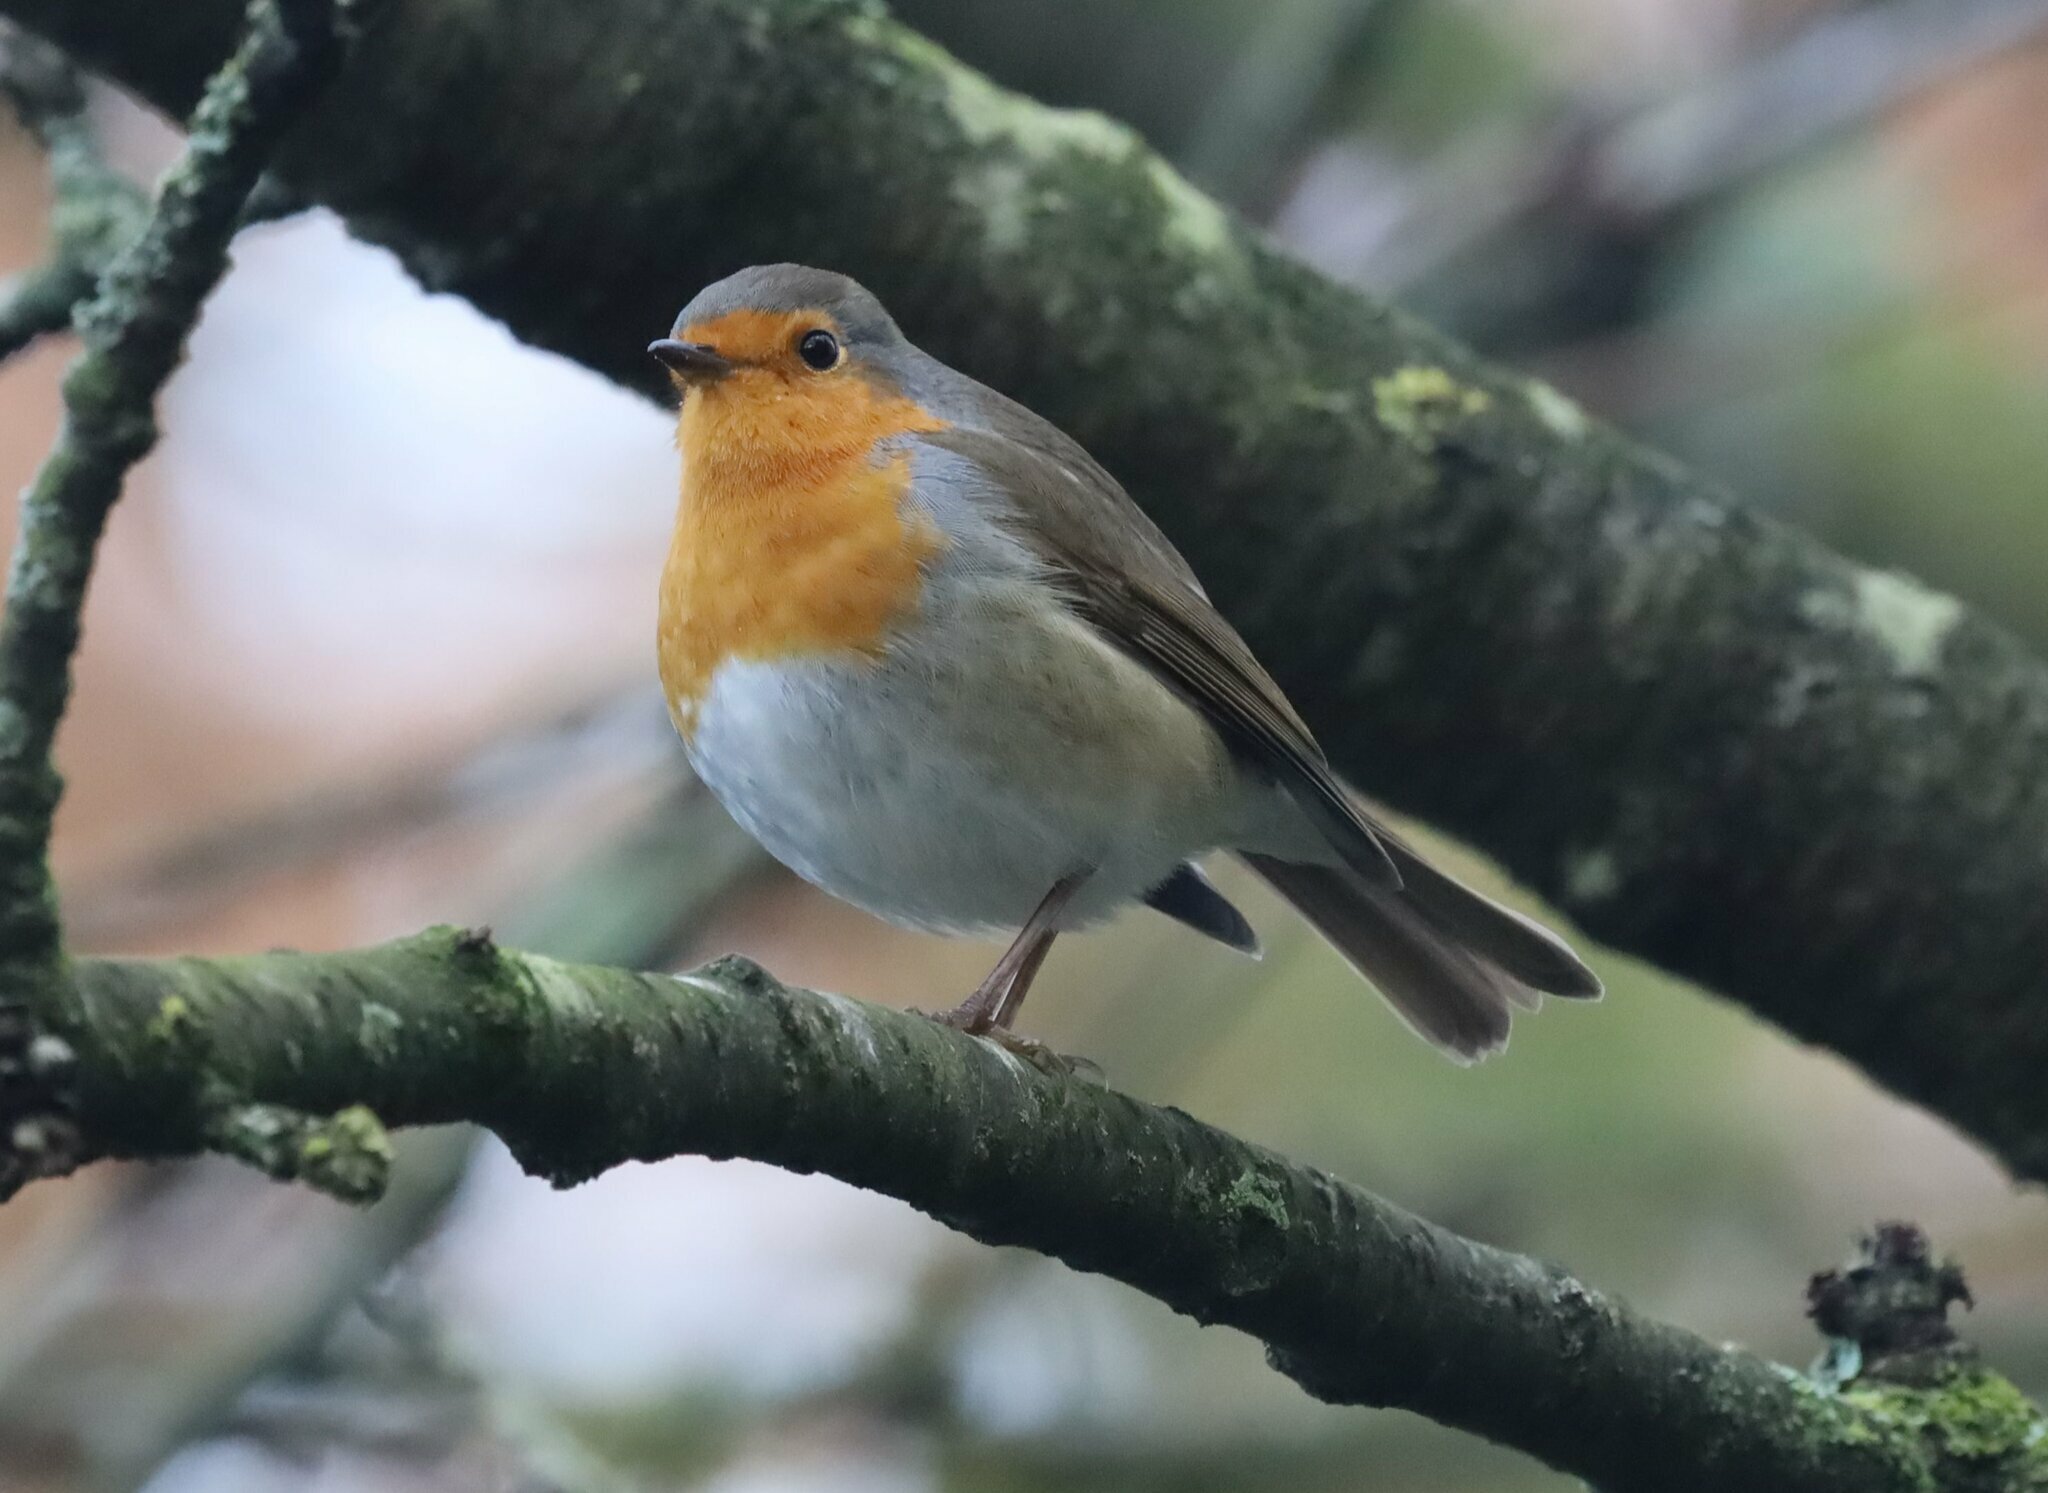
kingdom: Animalia
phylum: Chordata
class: Aves
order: Passeriformes
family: Muscicapidae
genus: Erithacus
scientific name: Erithacus rubecula
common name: European robin
